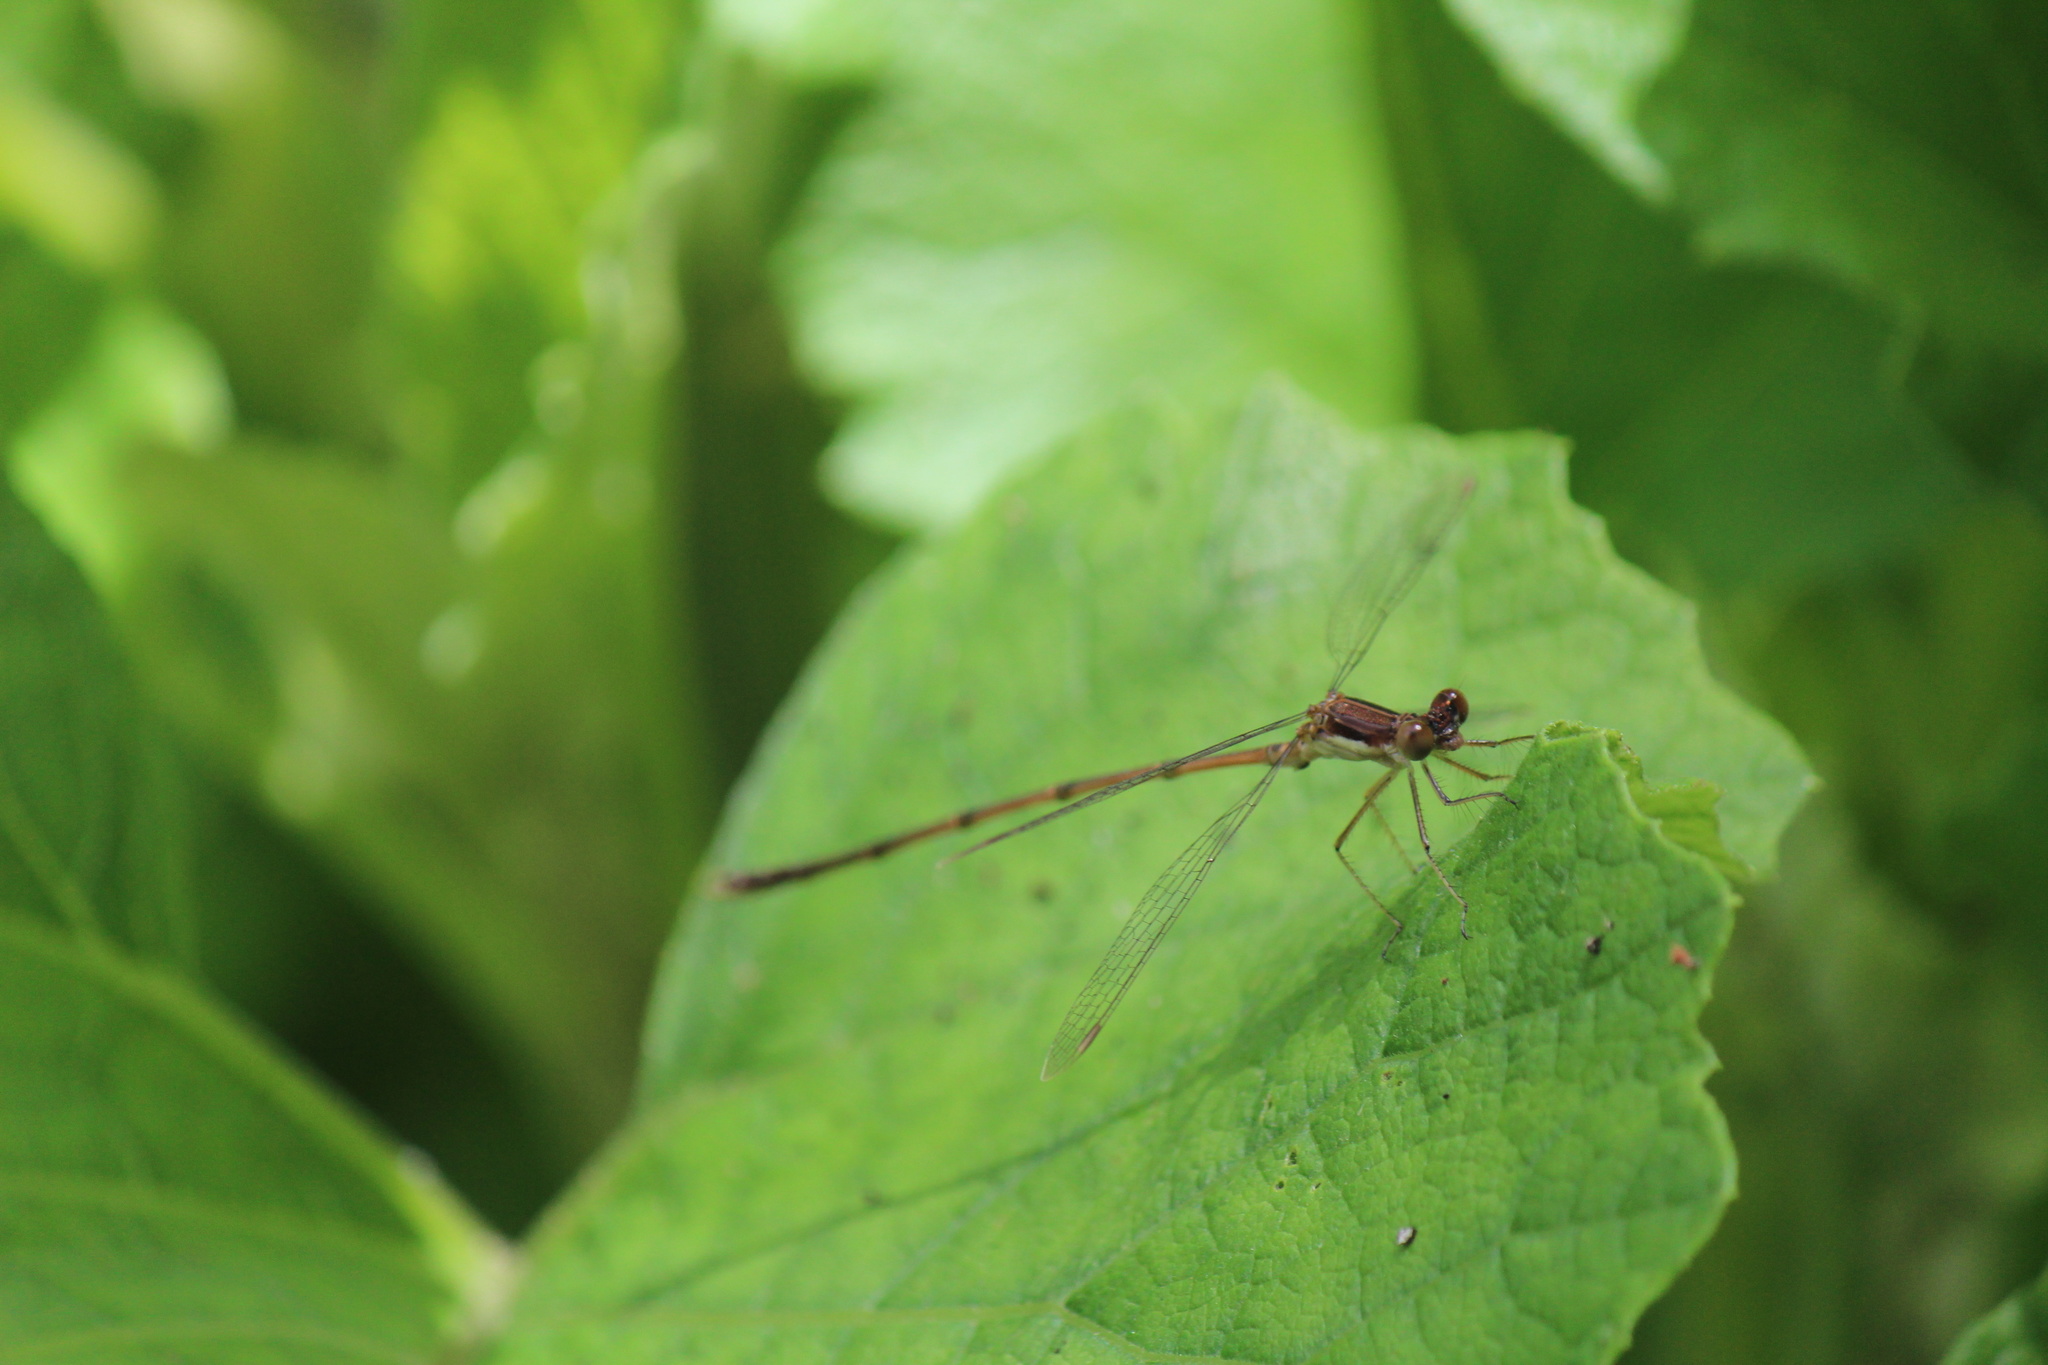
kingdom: Animalia
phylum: Arthropoda
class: Insecta
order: Odonata
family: Lestidae
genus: Lestes
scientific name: Lestes rectangularis
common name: Slender spreadwing
